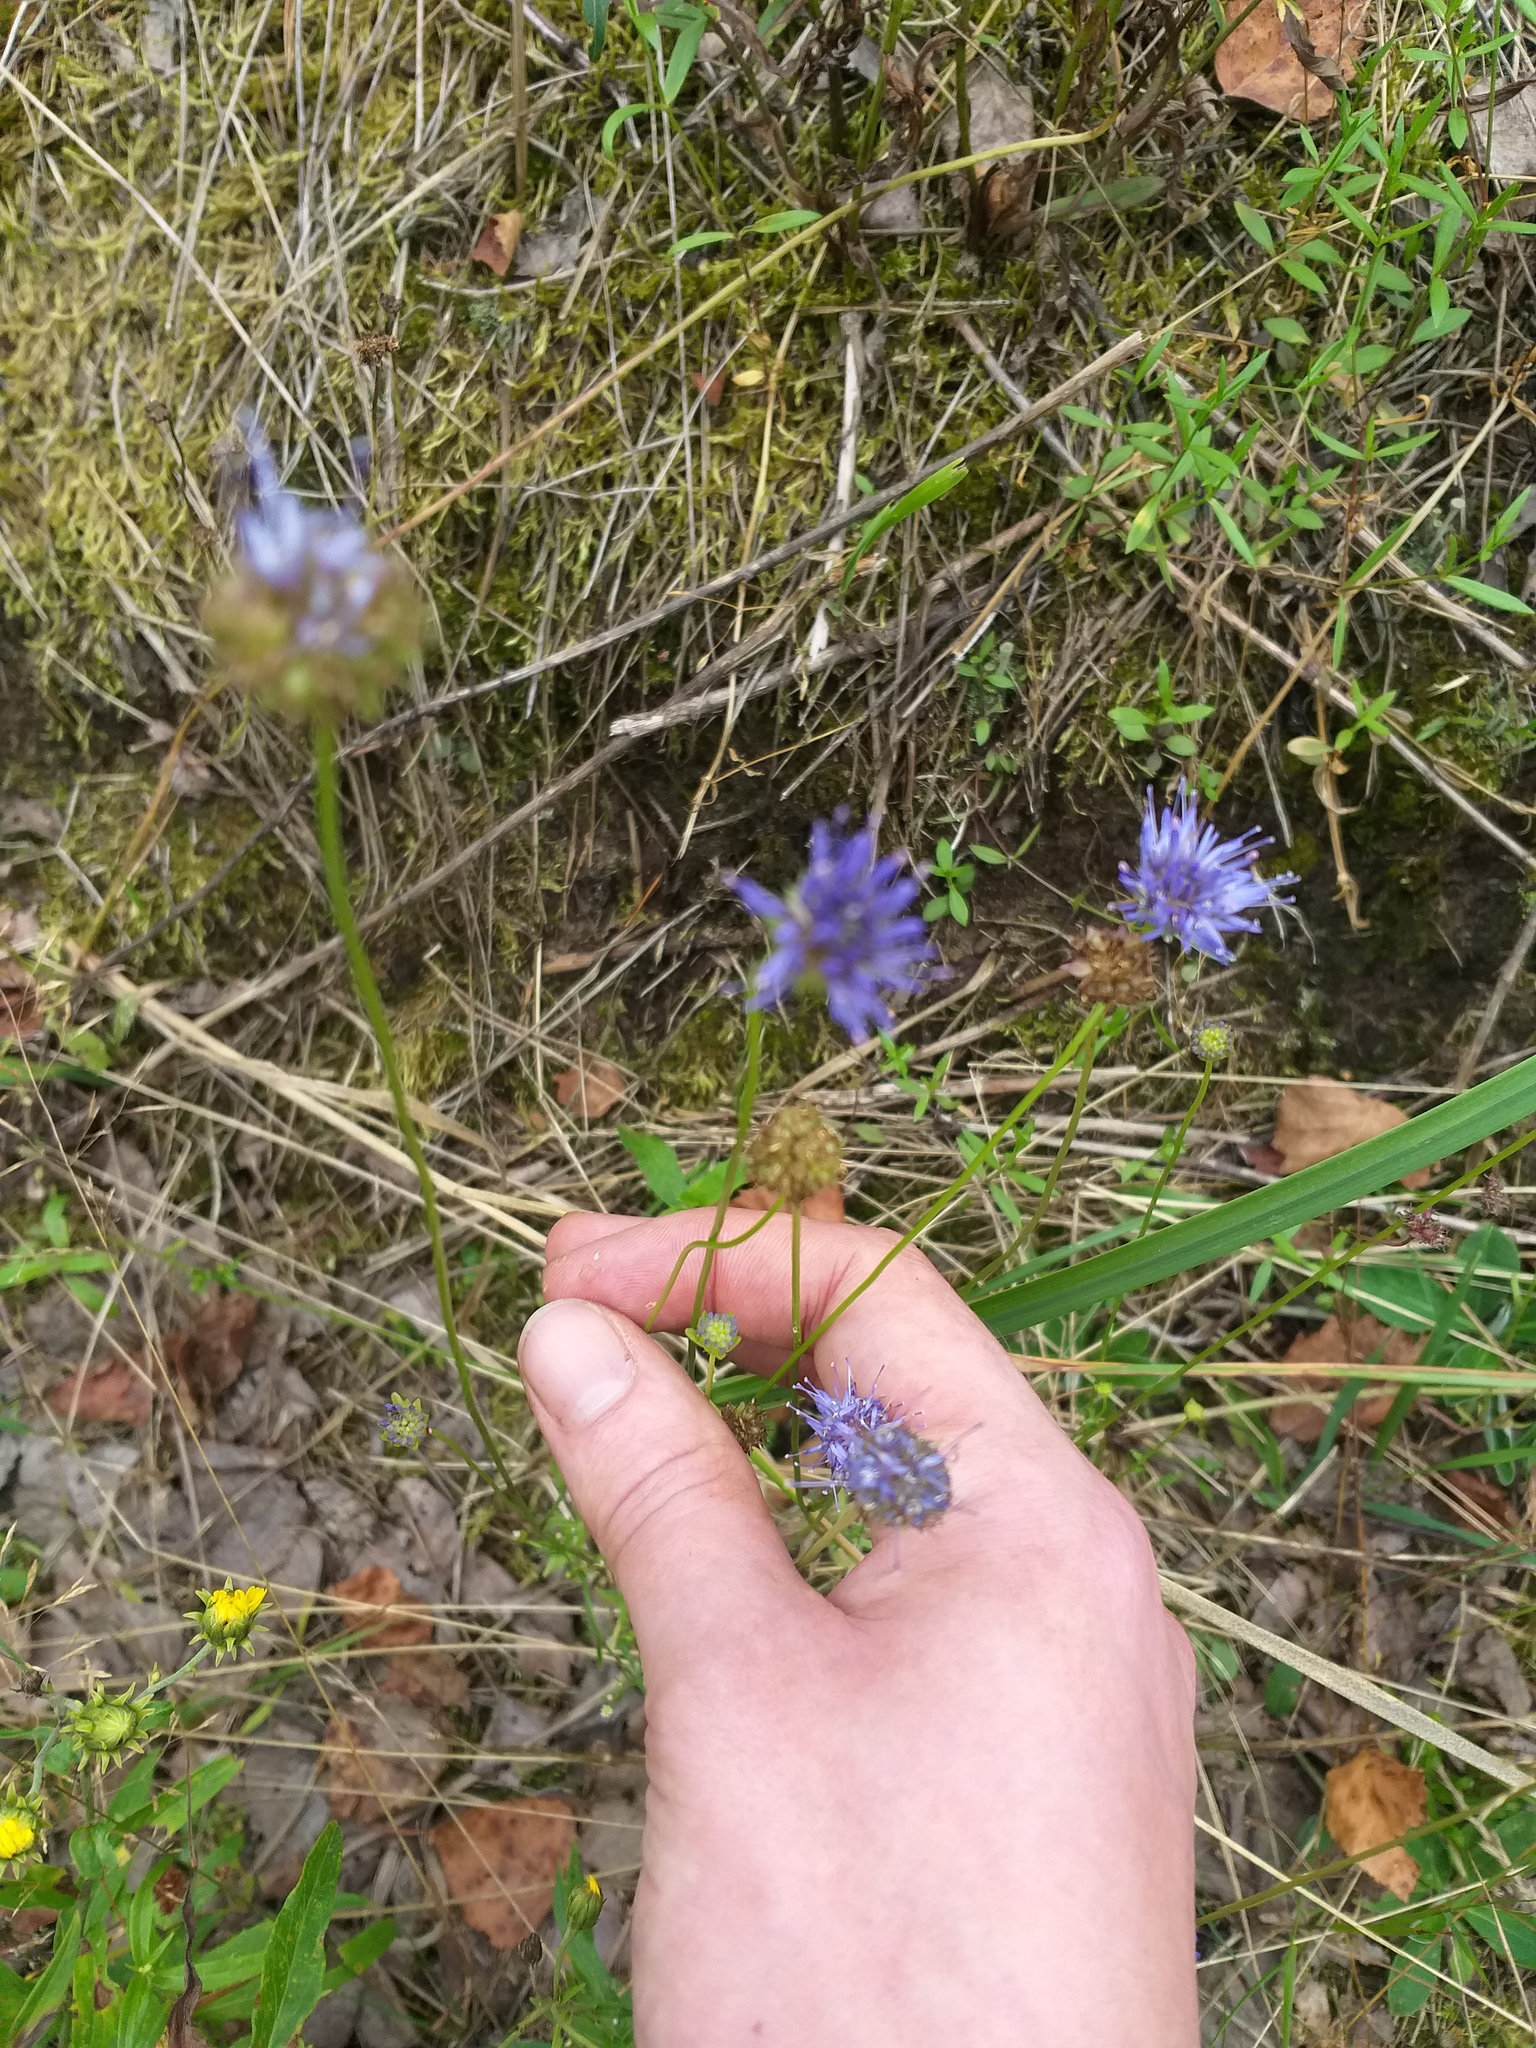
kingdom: Plantae
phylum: Tracheophyta
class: Magnoliopsida
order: Asterales
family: Campanulaceae
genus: Jasione
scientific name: Jasione montana
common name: Sheep's-bit
